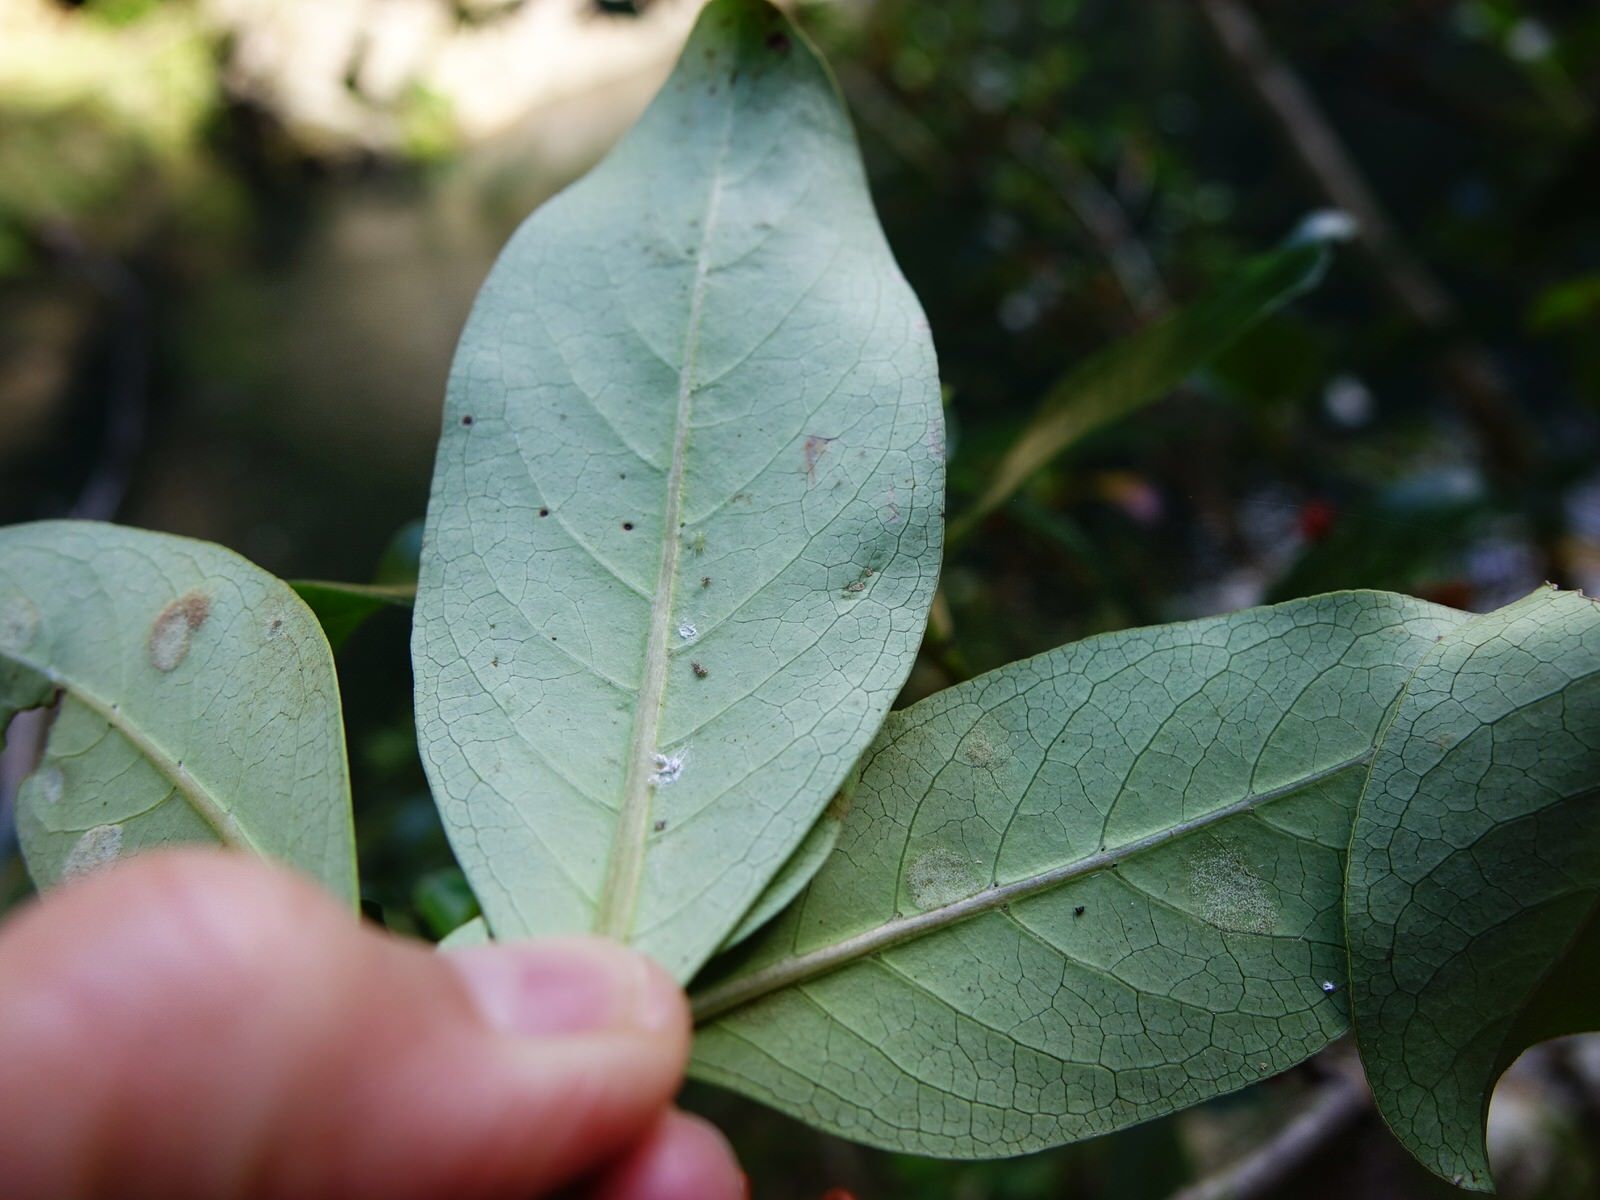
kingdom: Plantae
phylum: Tracheophyta
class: Magnoliopsida
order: Gentianales
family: Rubiaceae
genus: Coprosma
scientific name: Coprosma robusta
